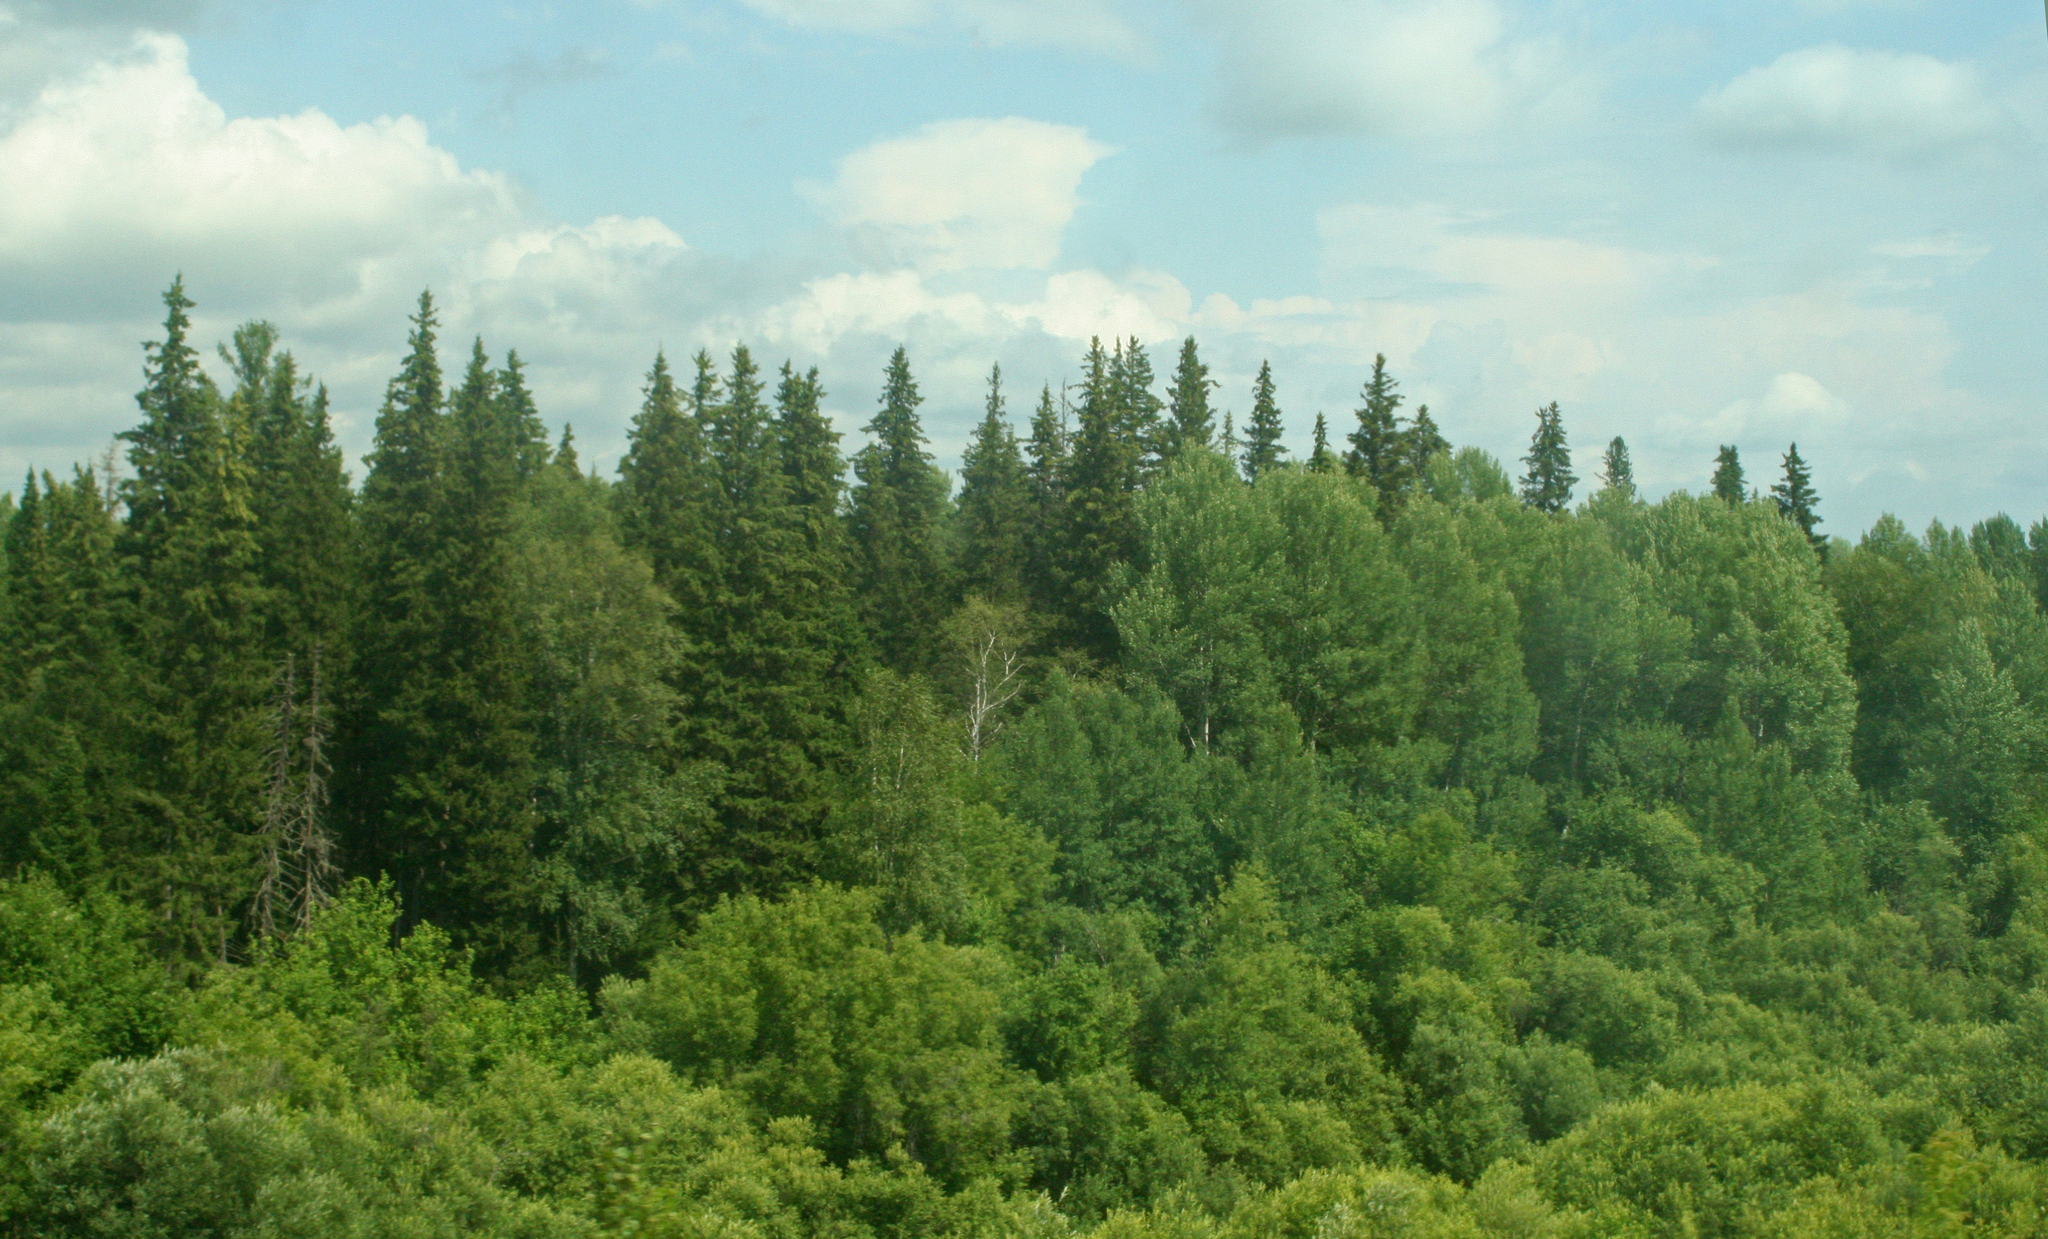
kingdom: Plantae
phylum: Tracheophyta
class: Pinopsida
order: Pinales
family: Pinaceae
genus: Picea
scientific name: Picea obovata
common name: Siberian spruce
